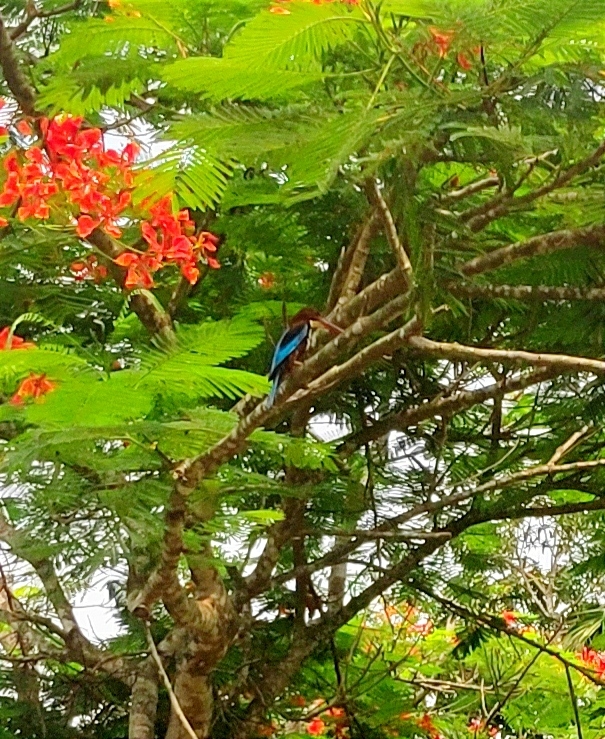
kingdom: Animalia
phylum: Chordata
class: Aves
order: Coraciiformes
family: Alcedinidae
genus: Halcyon
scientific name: Halcyon smyrnensis
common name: White-throated kingfisher
